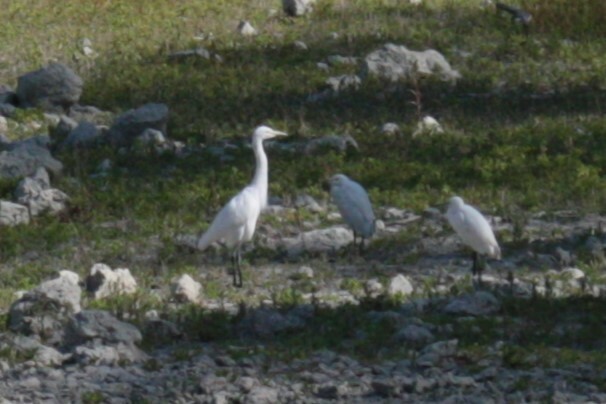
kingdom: Animalia
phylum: Chordata
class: Aves
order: Pelecaniformes
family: Ardeidae
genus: Egretta
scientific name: Egretta intermedia
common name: Intermediate egret
